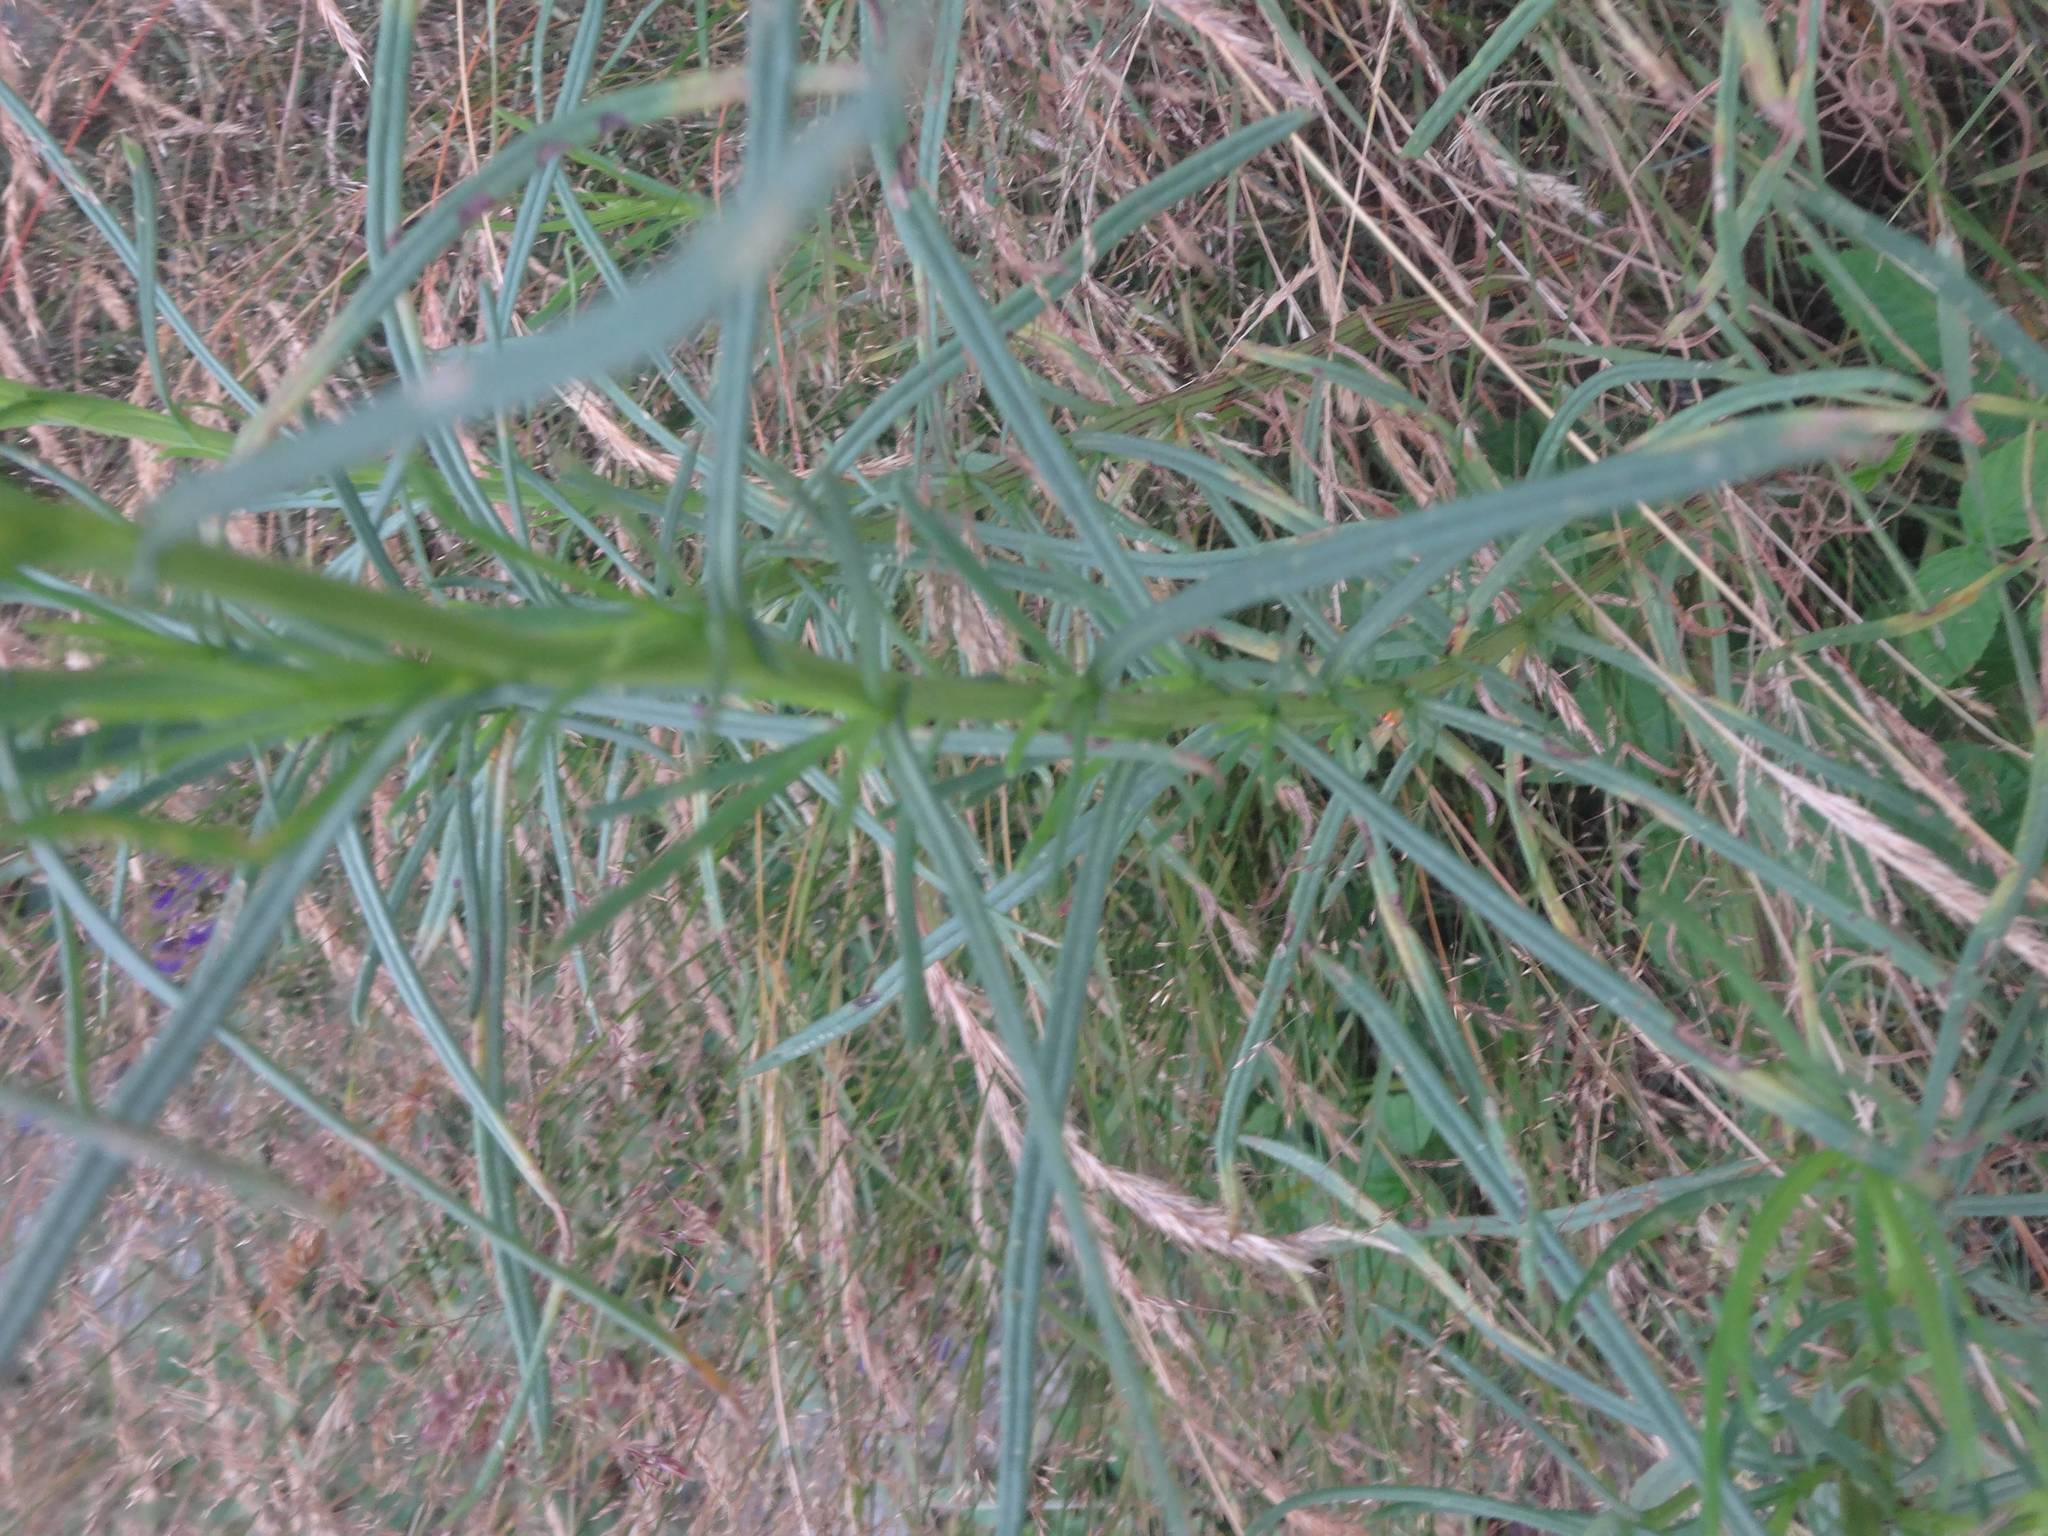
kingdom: Plantae
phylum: Tracheophyta
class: Magnoliopsida
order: Asterales
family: Asteraceae
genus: Senecio
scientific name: Senecio inaequidens
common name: Narrow-leaved ragwort
